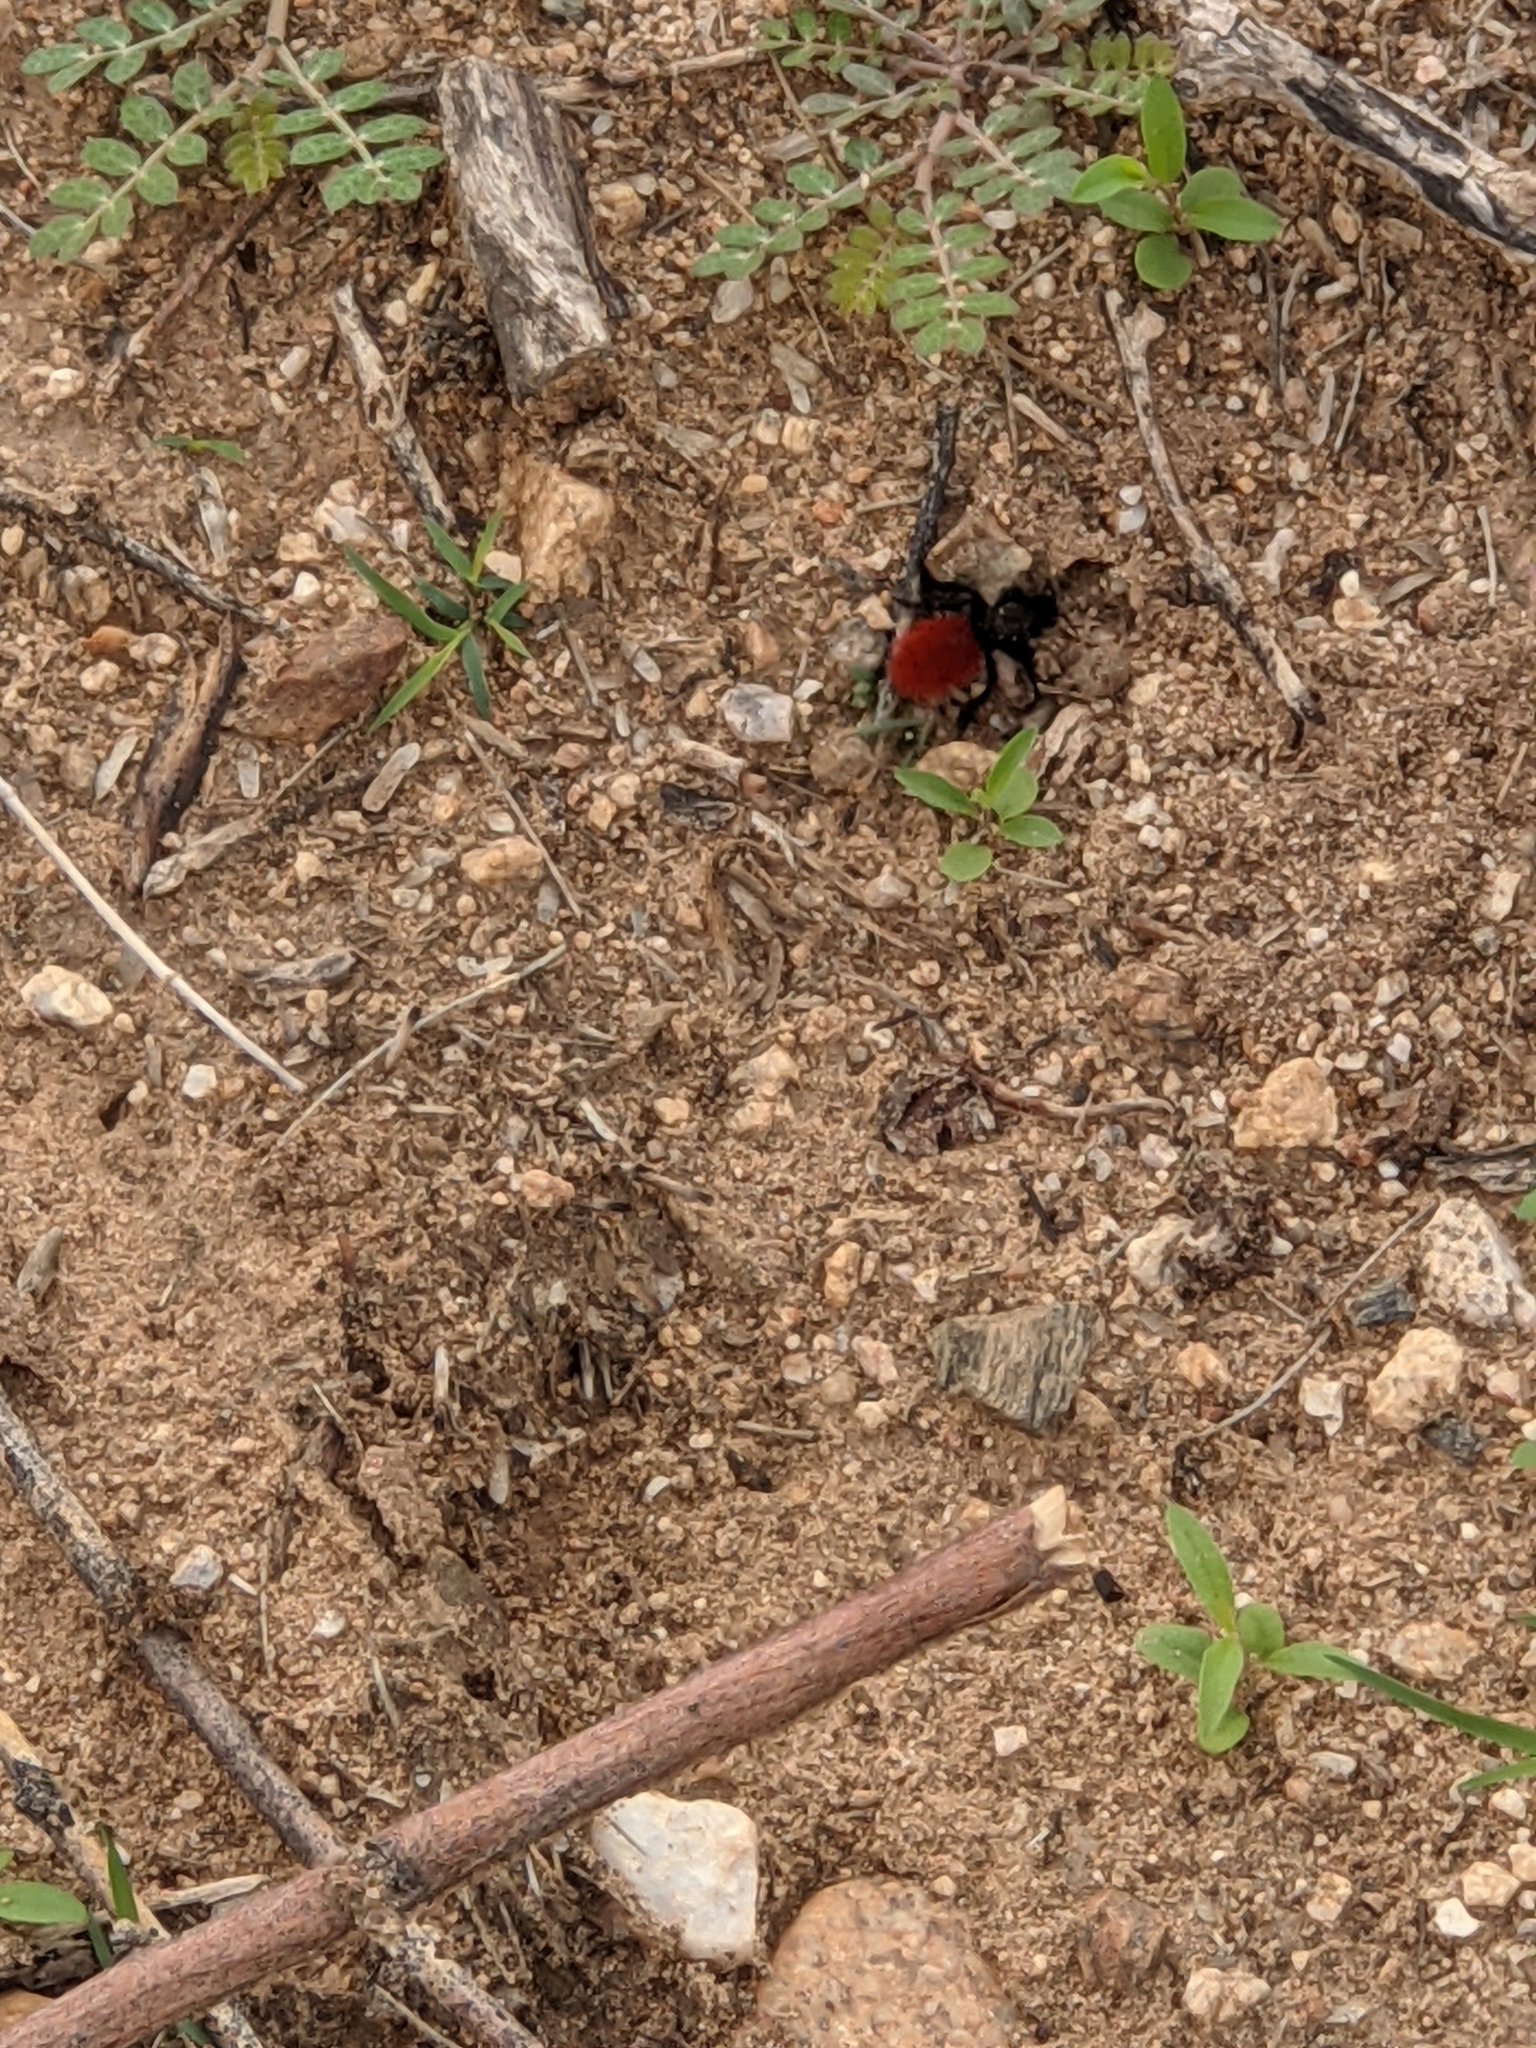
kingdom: Animalia
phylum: Arthropoda
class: Insecta
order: Hymenoptera
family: Mutillidae
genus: Dasymutilla
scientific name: Dasymutilla magnifica
